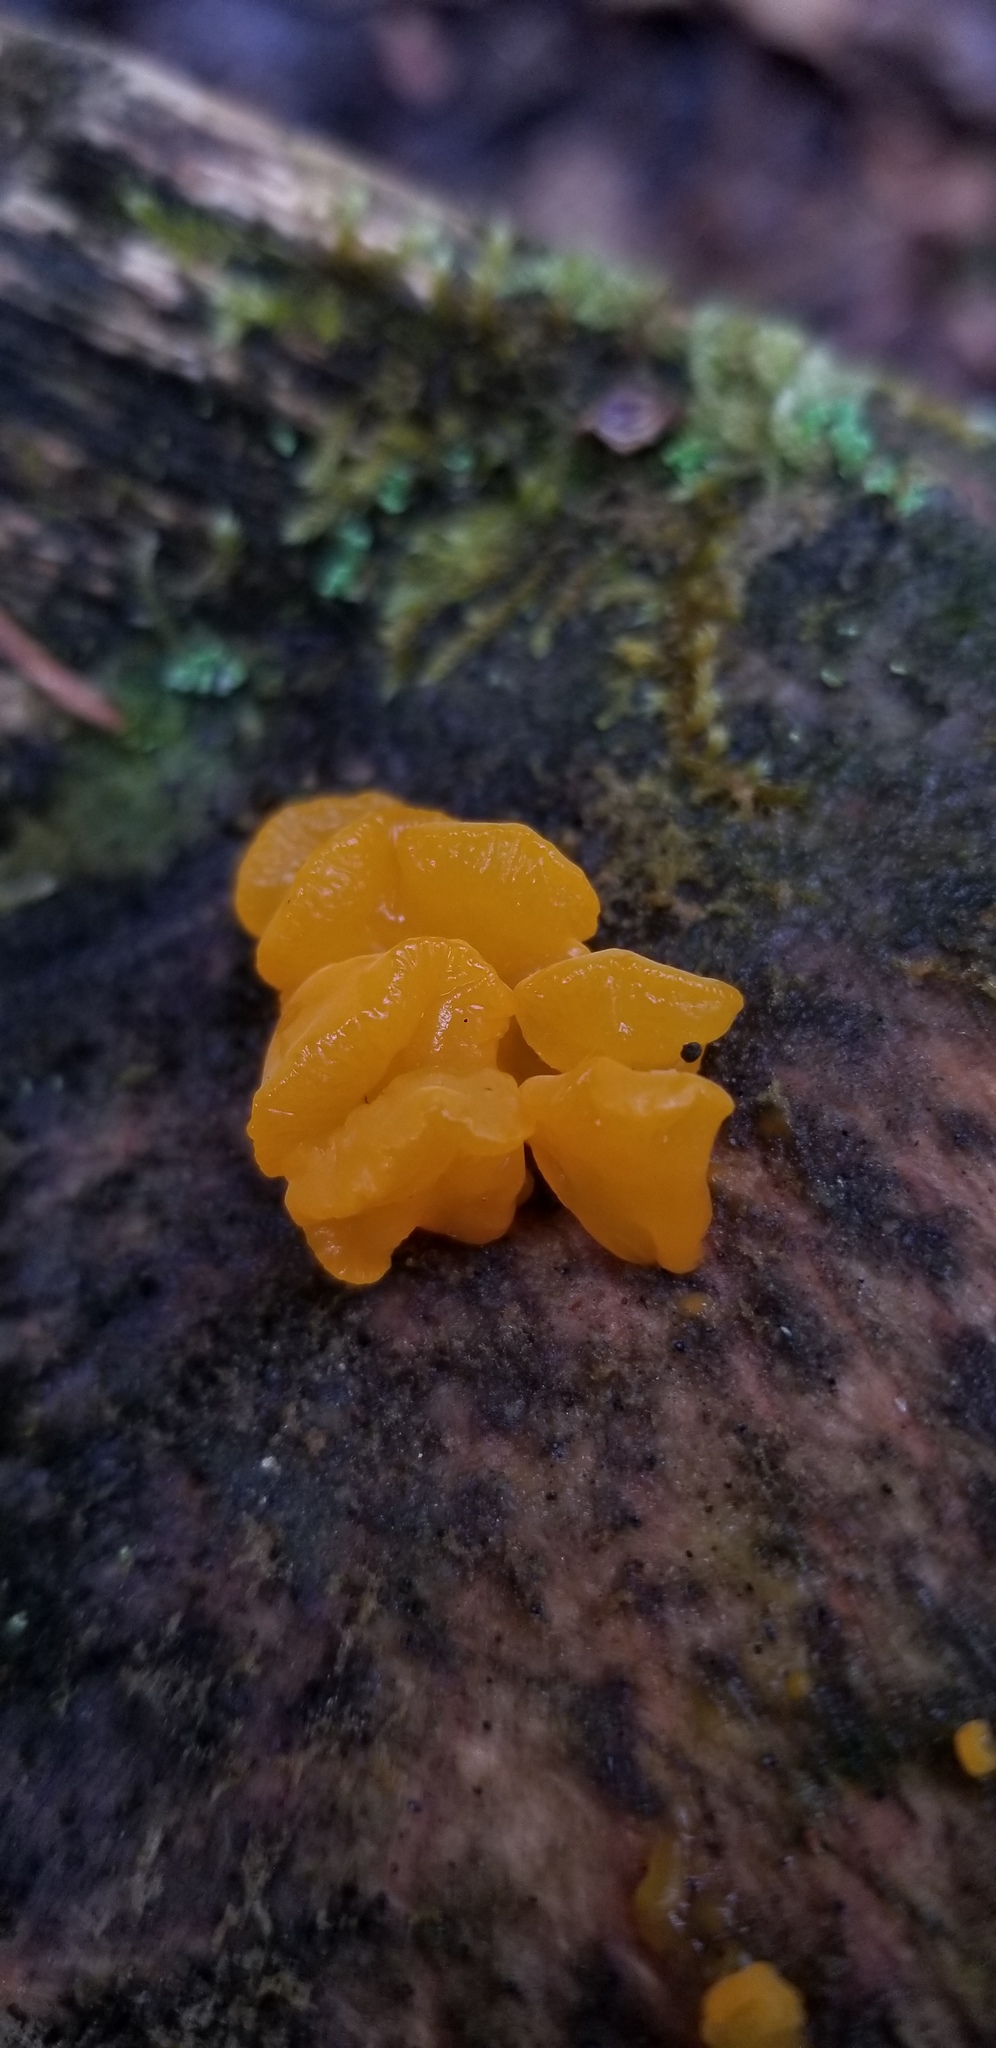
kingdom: Fungi
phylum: Basidiomycota
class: Dacrymycetes
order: Dacrymycetales
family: Dacrymycetaceae
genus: Dacrymyces
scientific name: Dacrymyces chrysospermus
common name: Orange jelly spot
